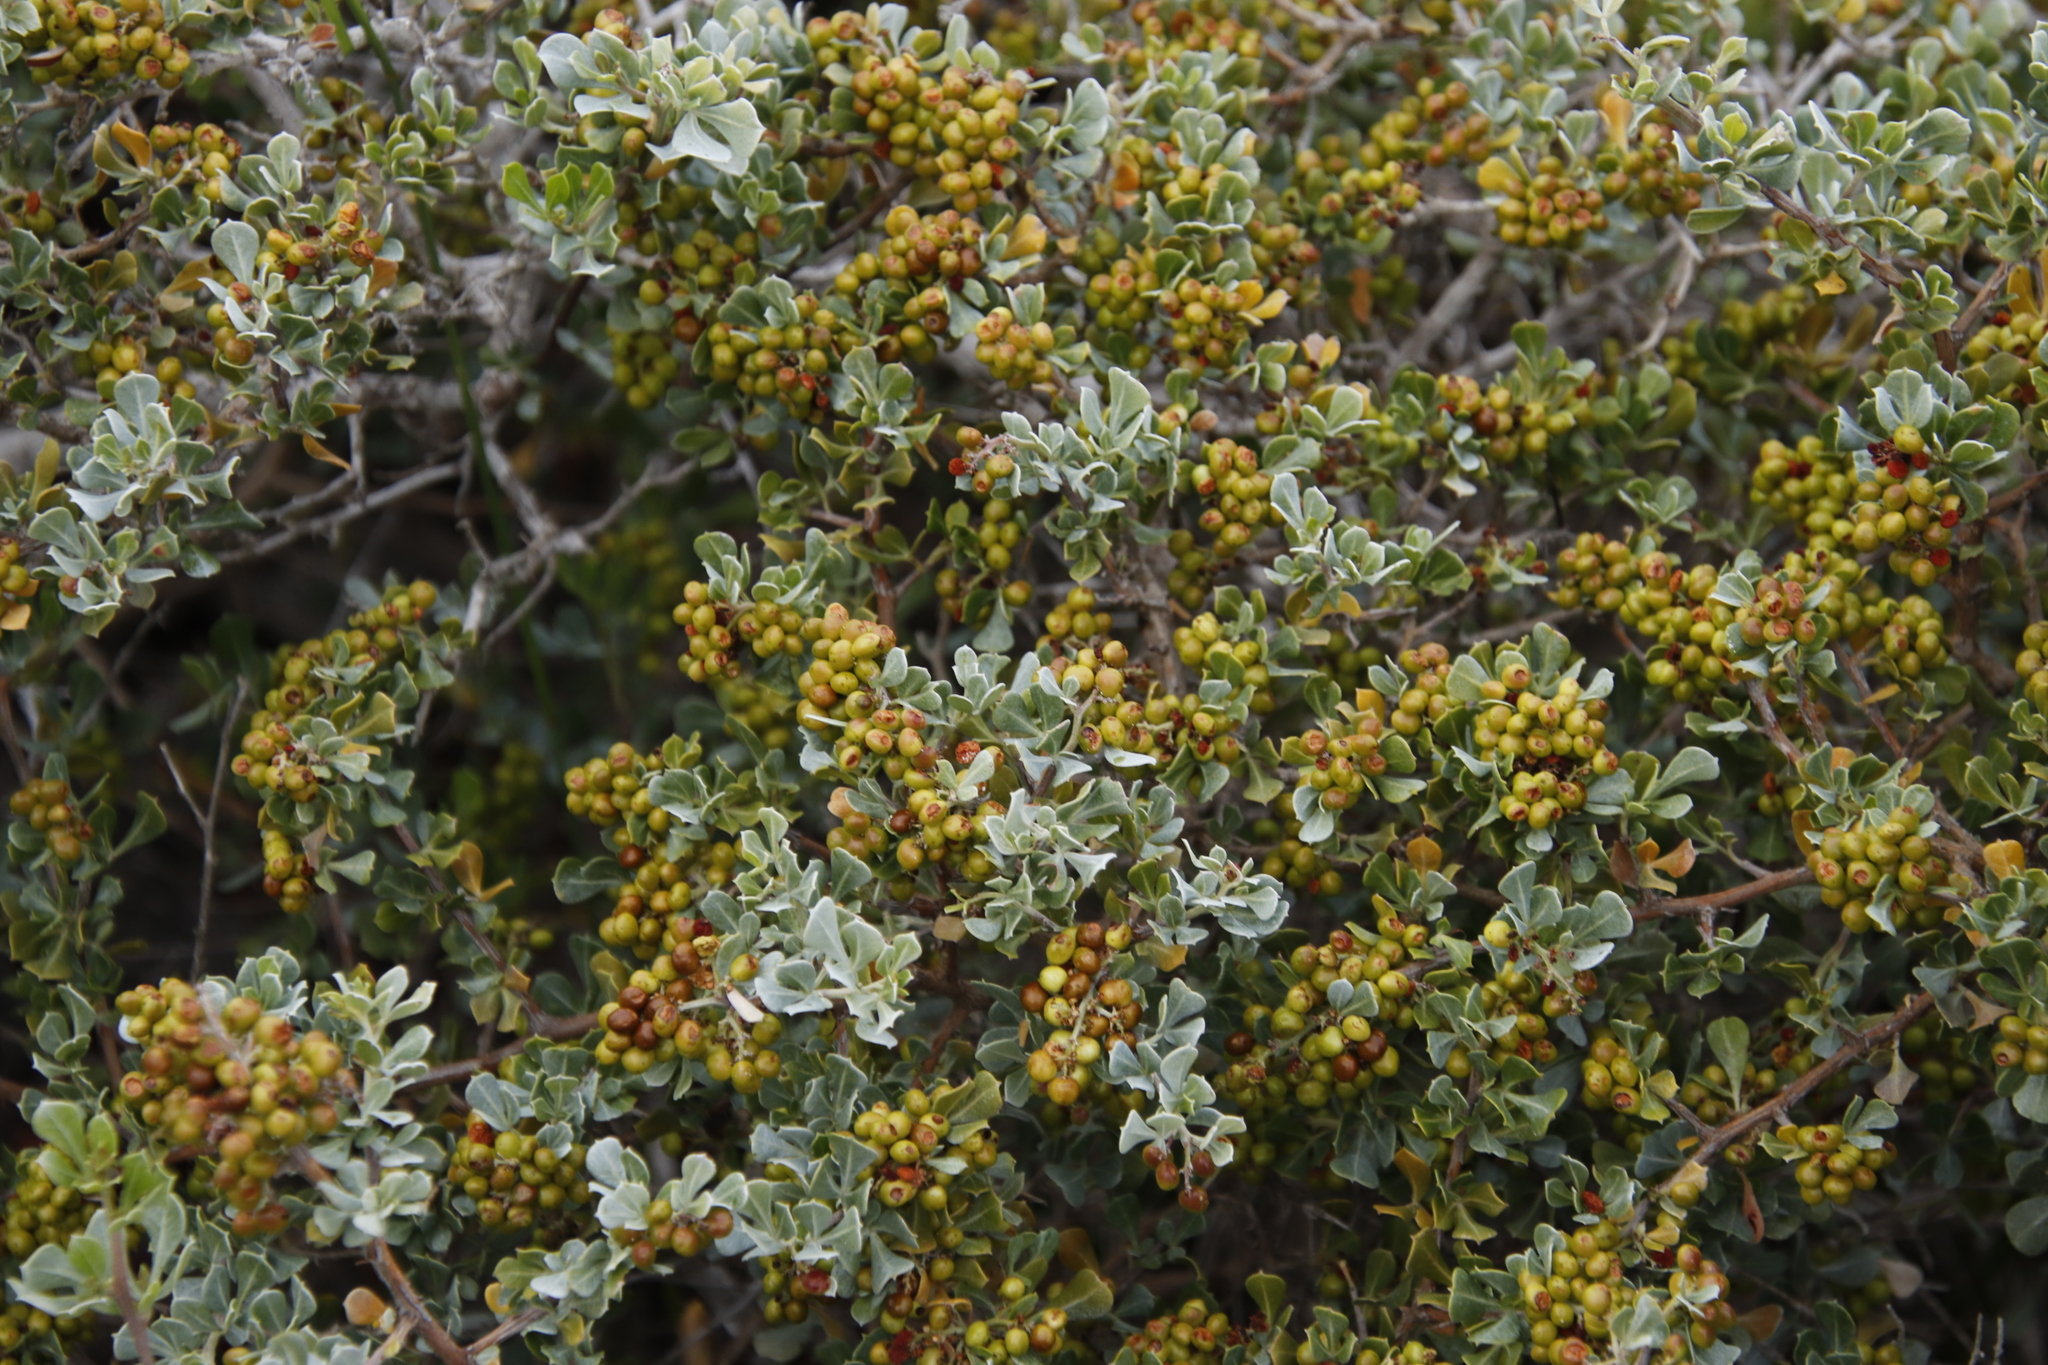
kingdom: Plantae
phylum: Tracheophyta
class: Magnoliopsida
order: Sapindales
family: Anacardiaceae
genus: Searsia
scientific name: Searsia glauca
